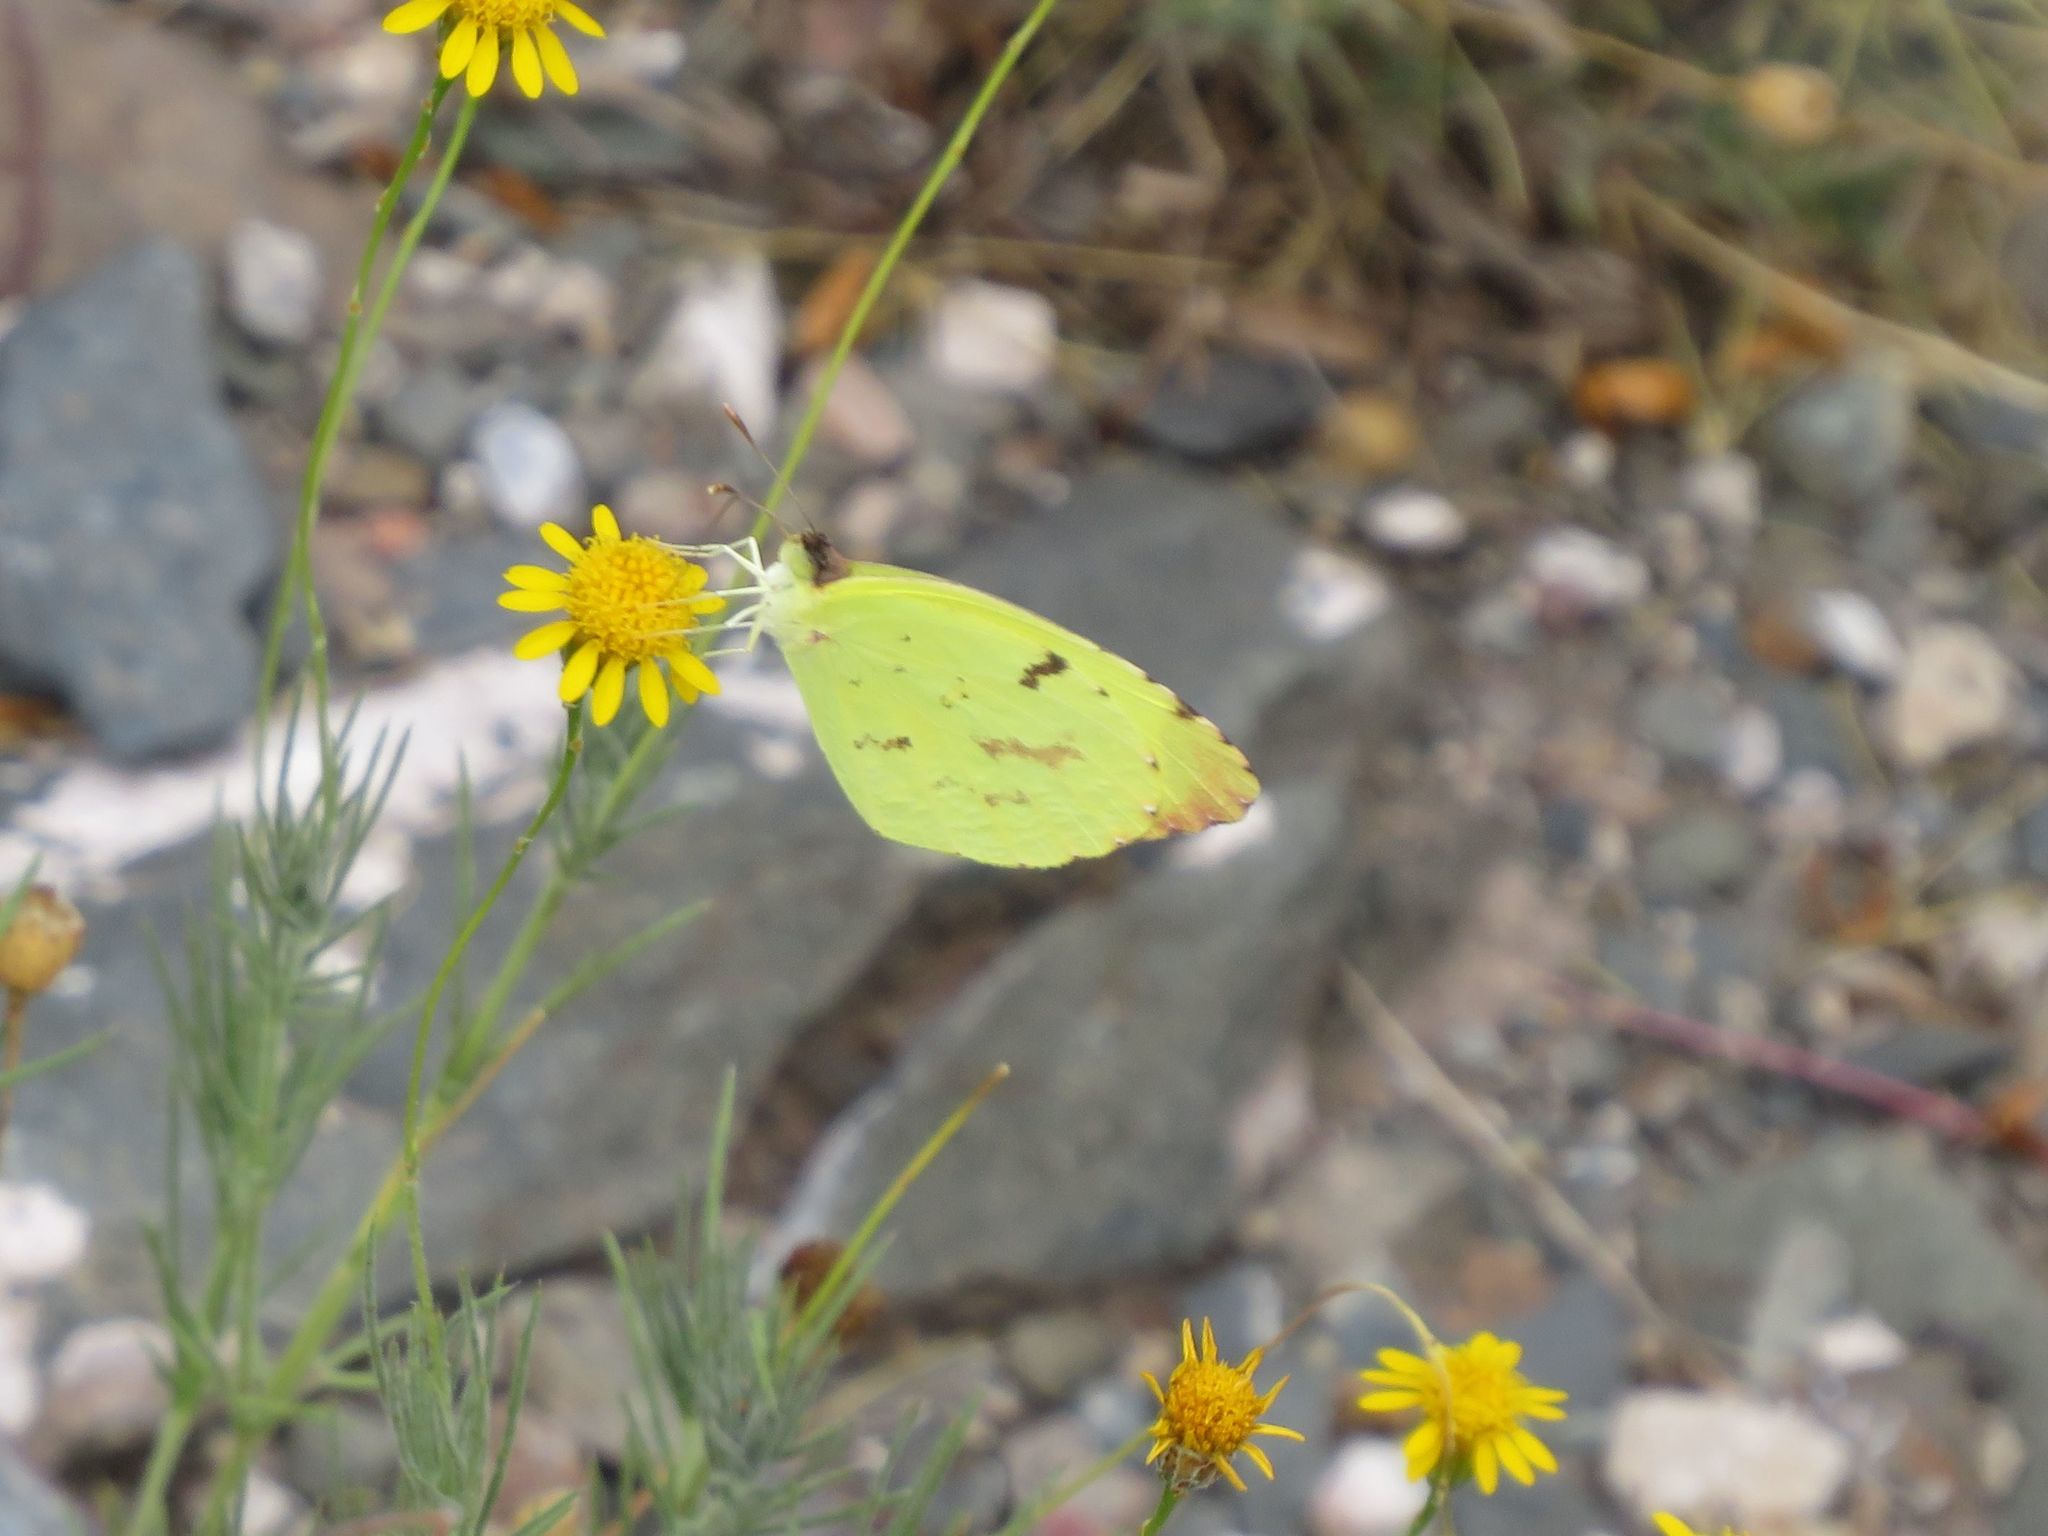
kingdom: Animalia
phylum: Arthropoda
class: Insecta
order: Lepidoptera
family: Pieridae
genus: Teriocolias
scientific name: Teriocolias
